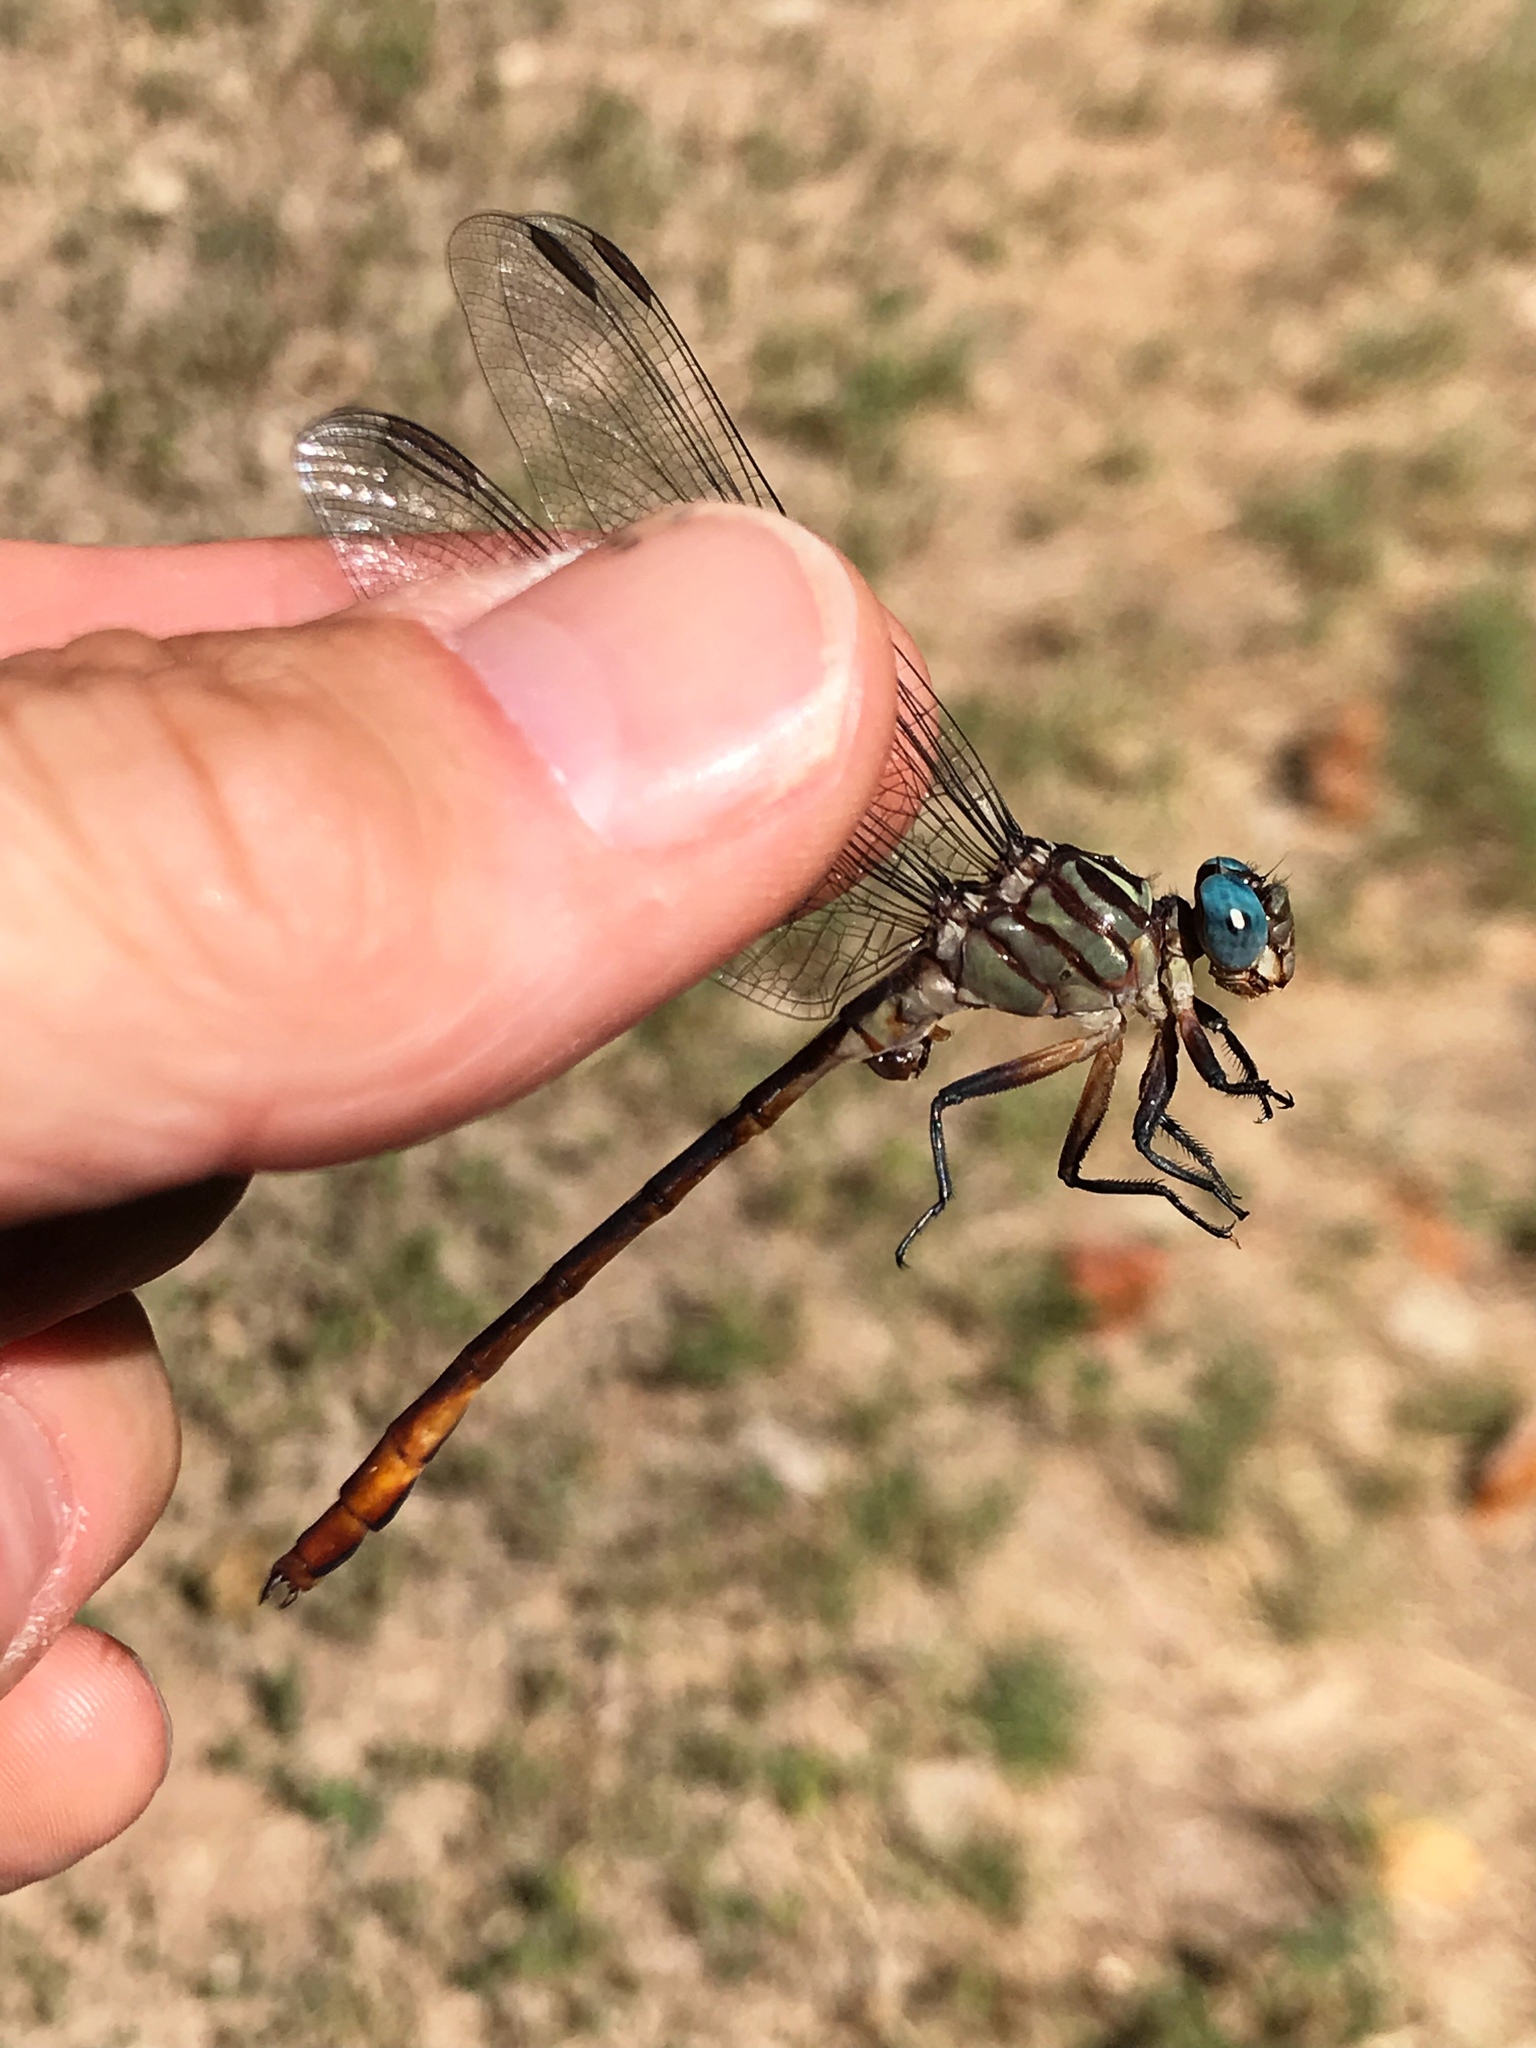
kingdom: Animalia
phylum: Arthropoda
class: Insecta
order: Odonata
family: Gomphidae
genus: Stylurus
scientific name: Stylurus plagiatus
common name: Russet-tipped clubtail
